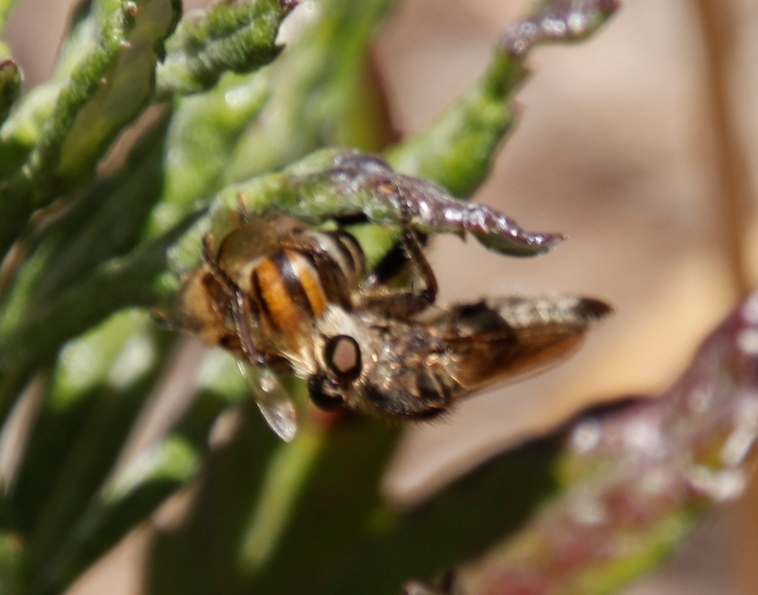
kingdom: Animalia
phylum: Arthropoda
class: Insecta
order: Hymenoptera
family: Apidae
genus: Apis
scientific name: Apis mellifera
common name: Honey bee
